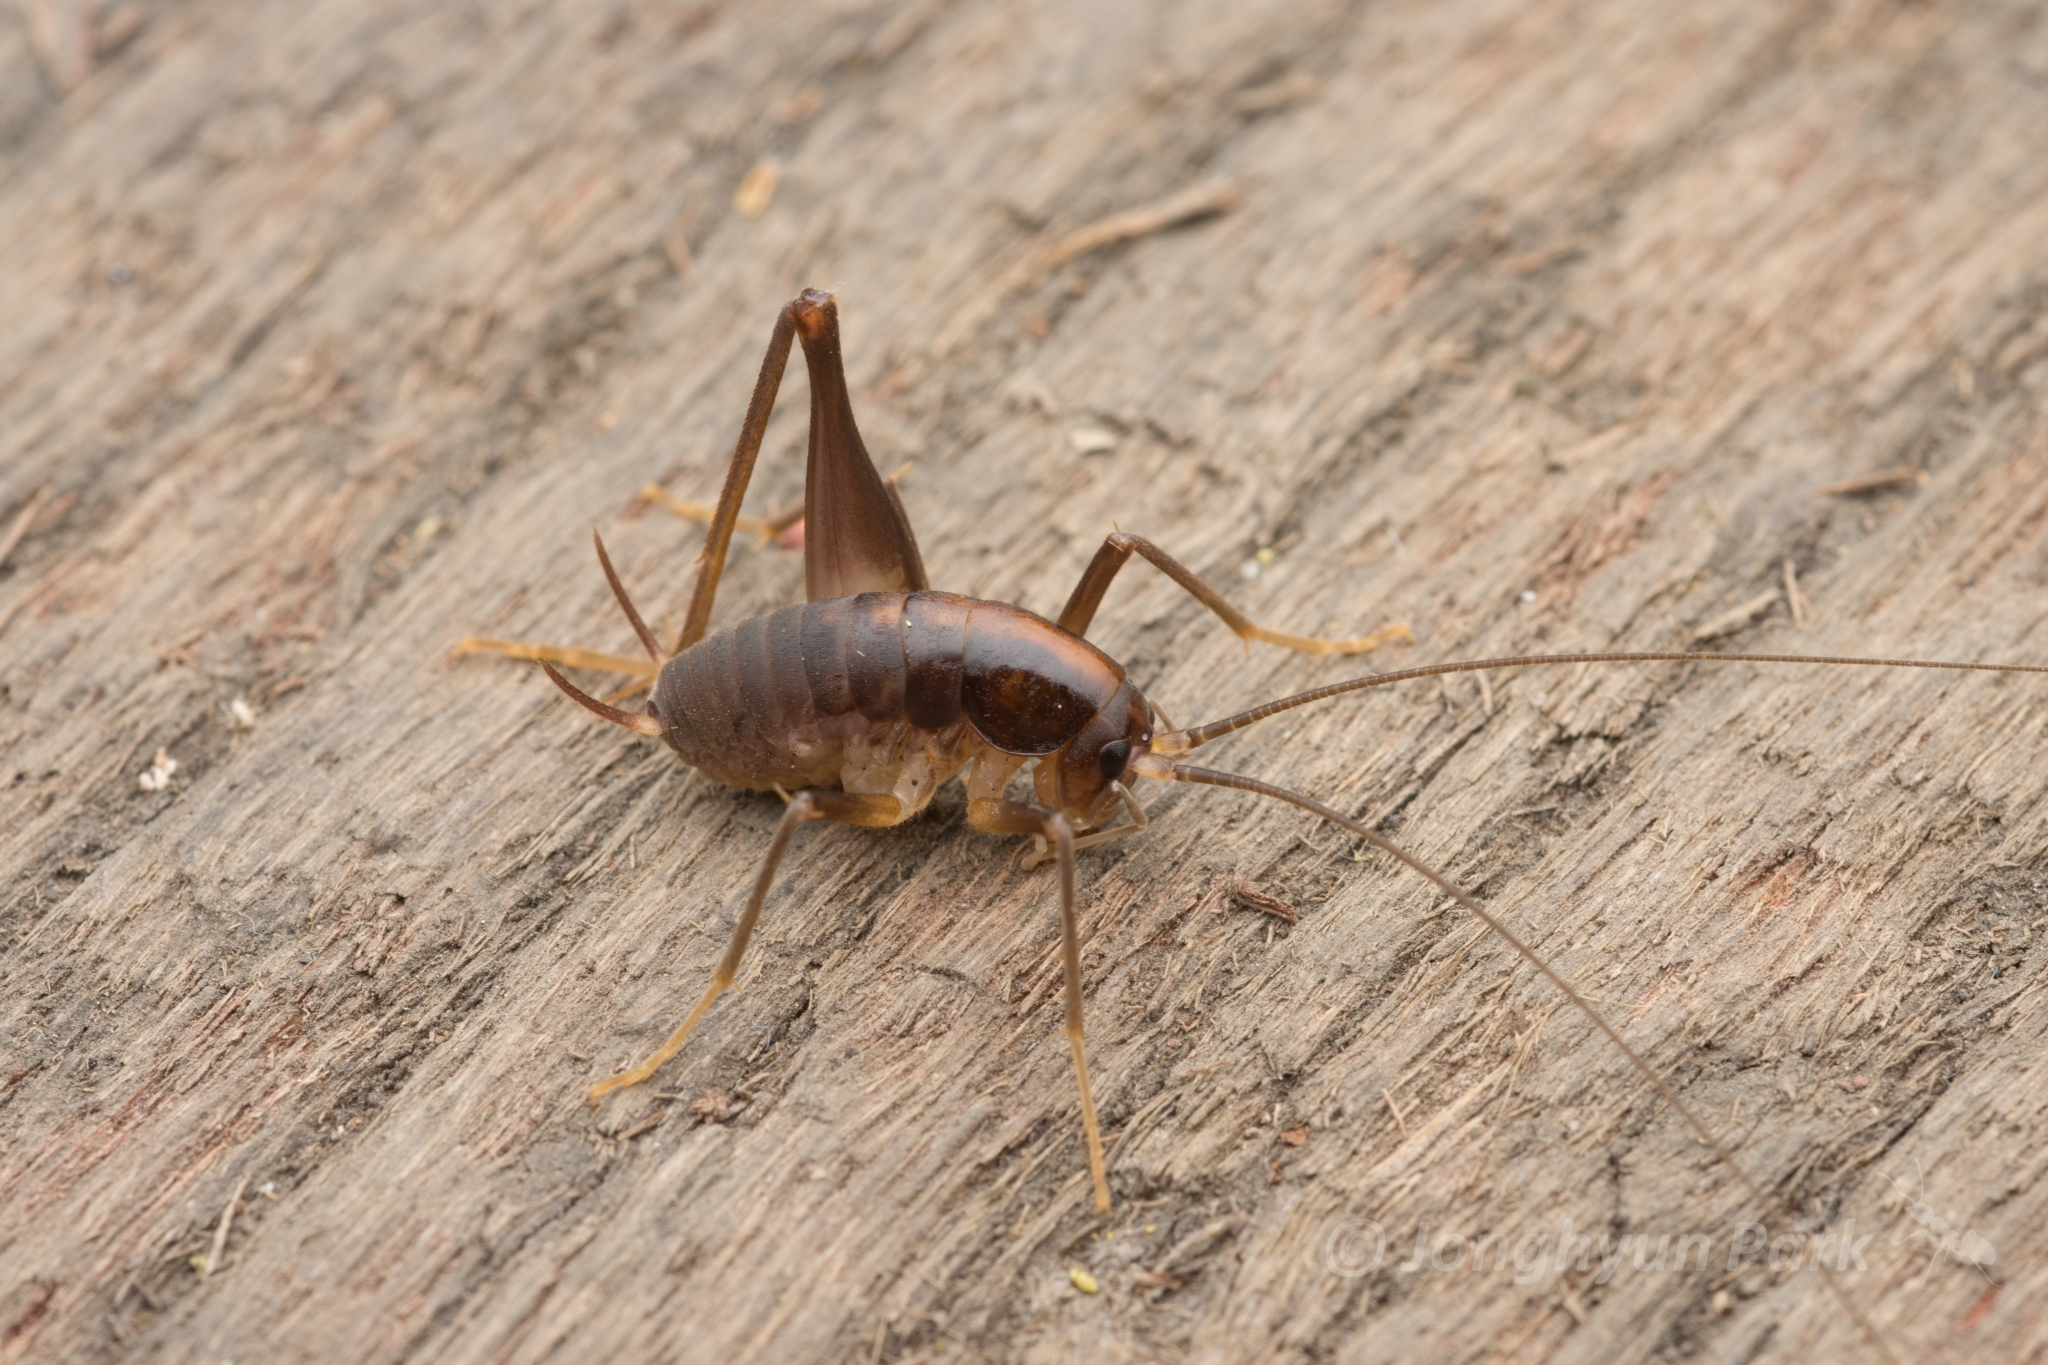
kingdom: Animalia
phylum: Arthropoda
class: Insecta
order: Orthoptera
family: Rhaphidophoridae
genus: Paratachycines
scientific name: Paratachycines ussuriensis
